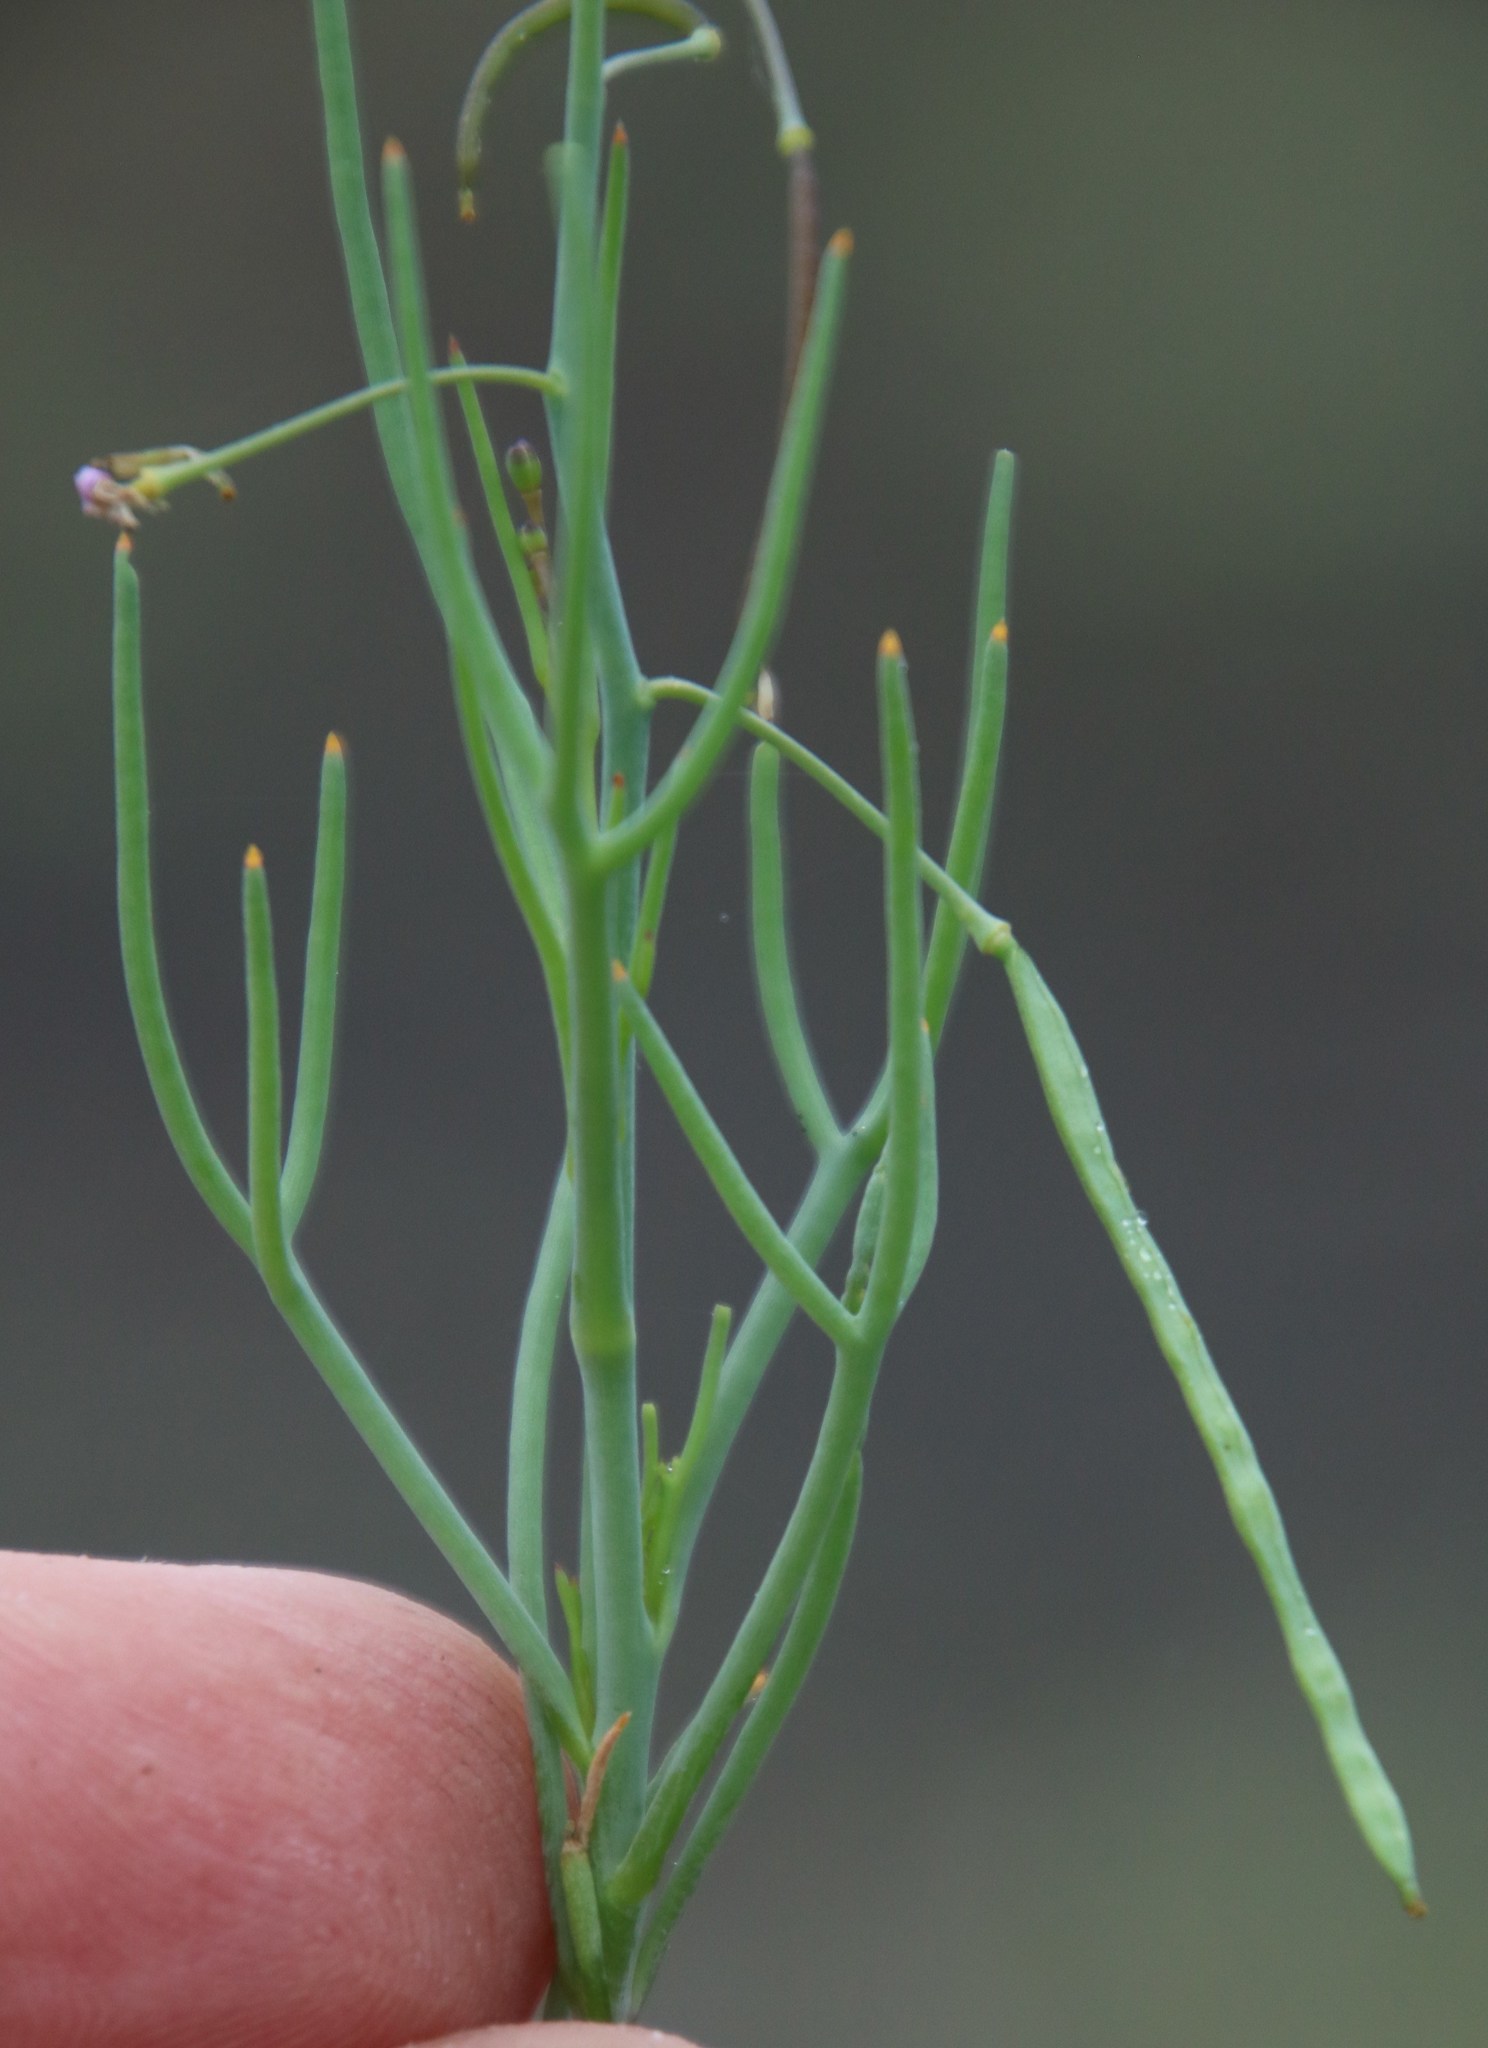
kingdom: Plantae
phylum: Tracheophyta
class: Magnoliopsida
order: Brassicales
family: Brassicaceae
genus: Heliophila
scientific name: Heliophila trifurca
